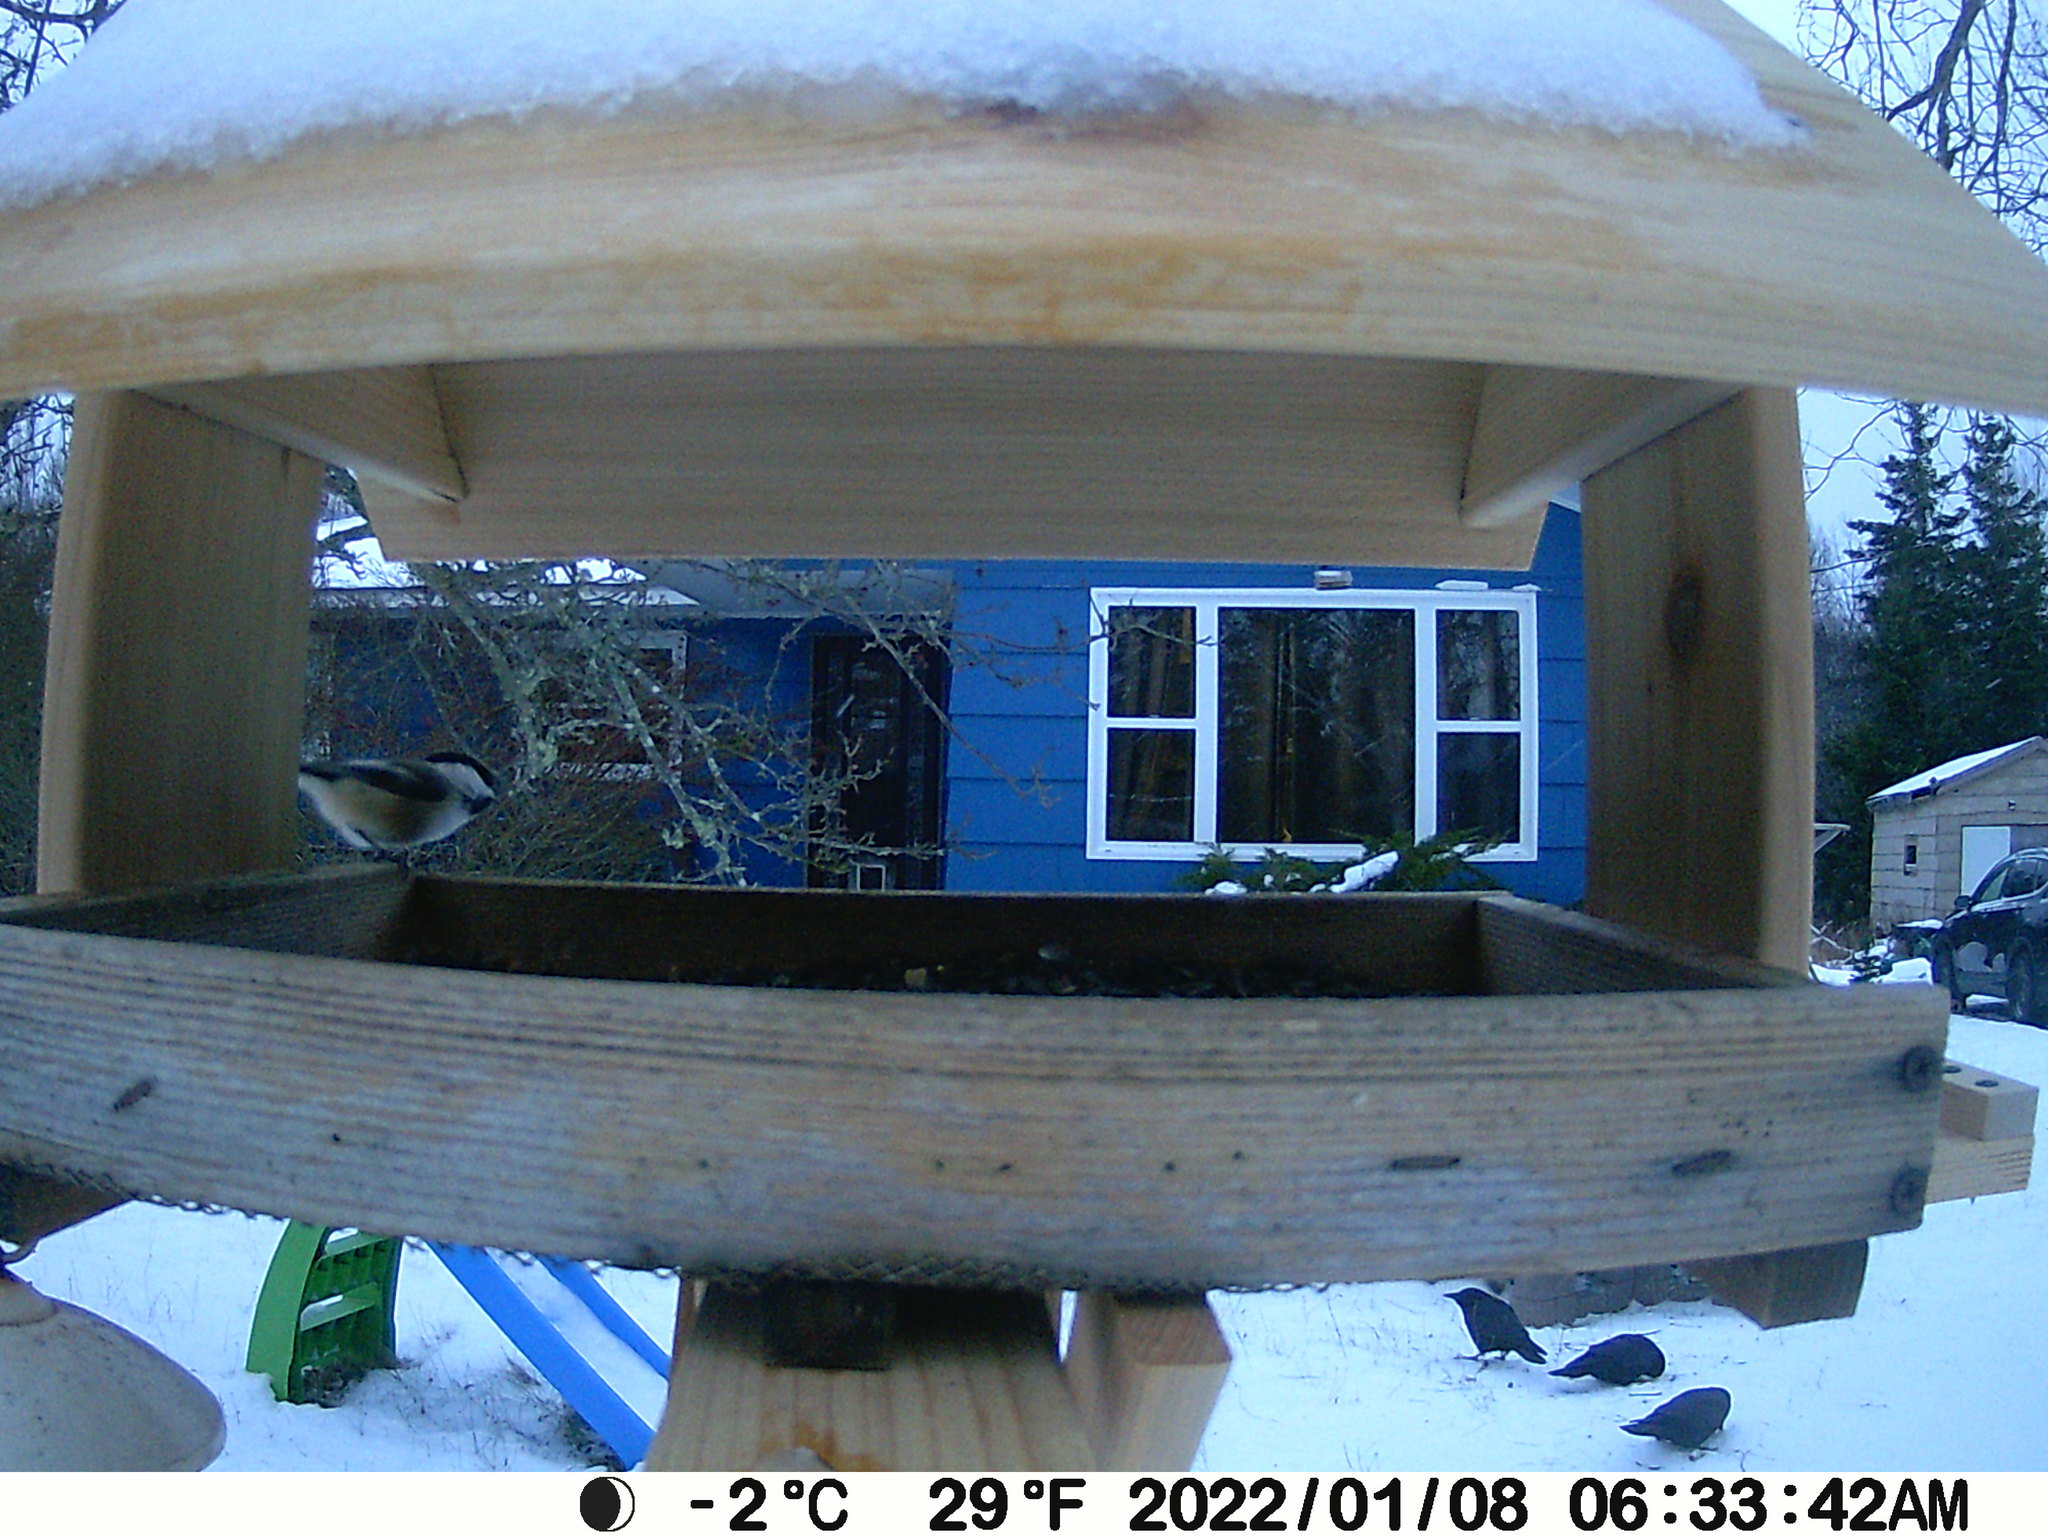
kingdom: Animalia
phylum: Chordata
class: Aves
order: Passeriformes
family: Corvidae
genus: Corvus
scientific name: Corvus brachyrhynchos
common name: American crow
